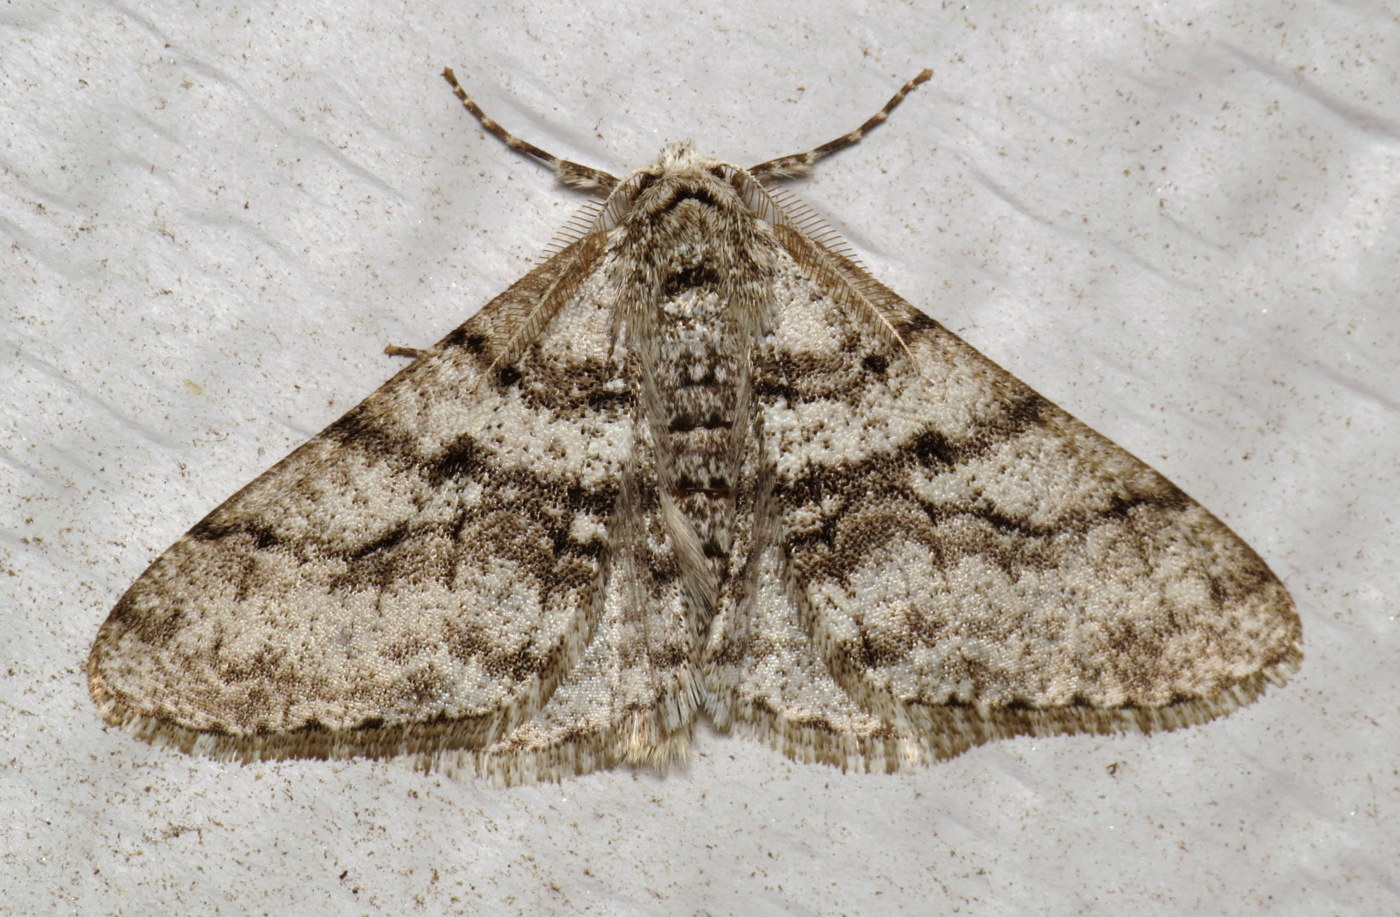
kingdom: Animalia
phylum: Arthropoda
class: Insecta
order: Lepidoptera
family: Geometridae
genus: Phigalia
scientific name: Phigalia titea
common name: Spiny looper
